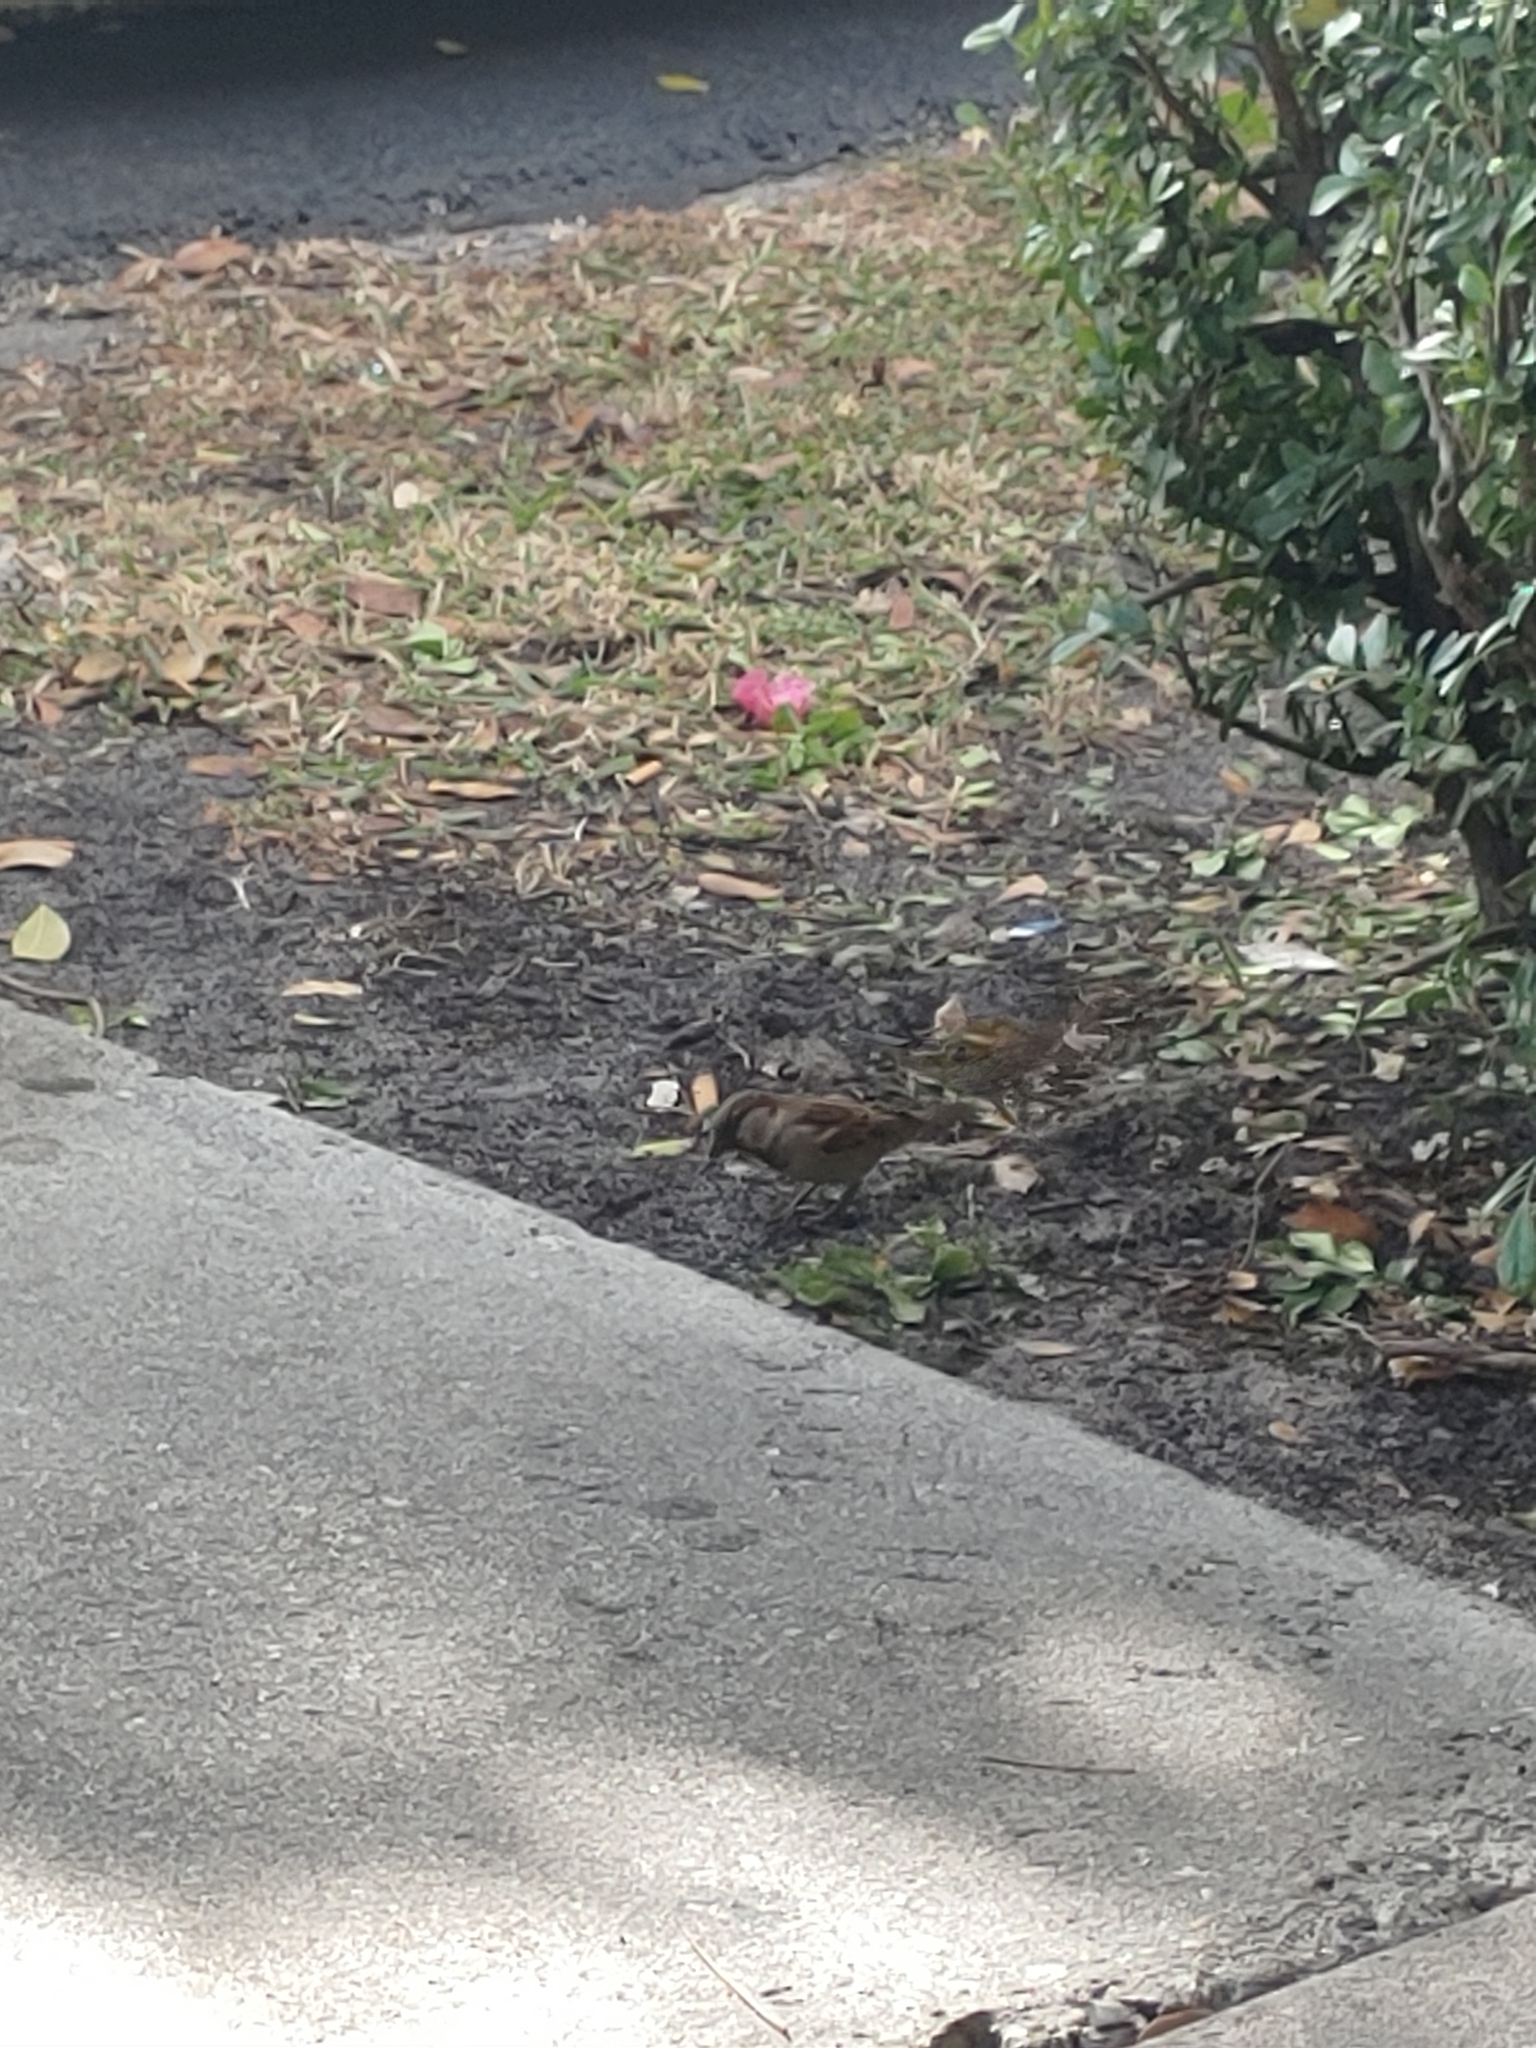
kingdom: Animalia
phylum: Chordata
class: Aves
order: Passeriformes
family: Passeridae
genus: Passer
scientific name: Passer domesticus
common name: House sparrow
